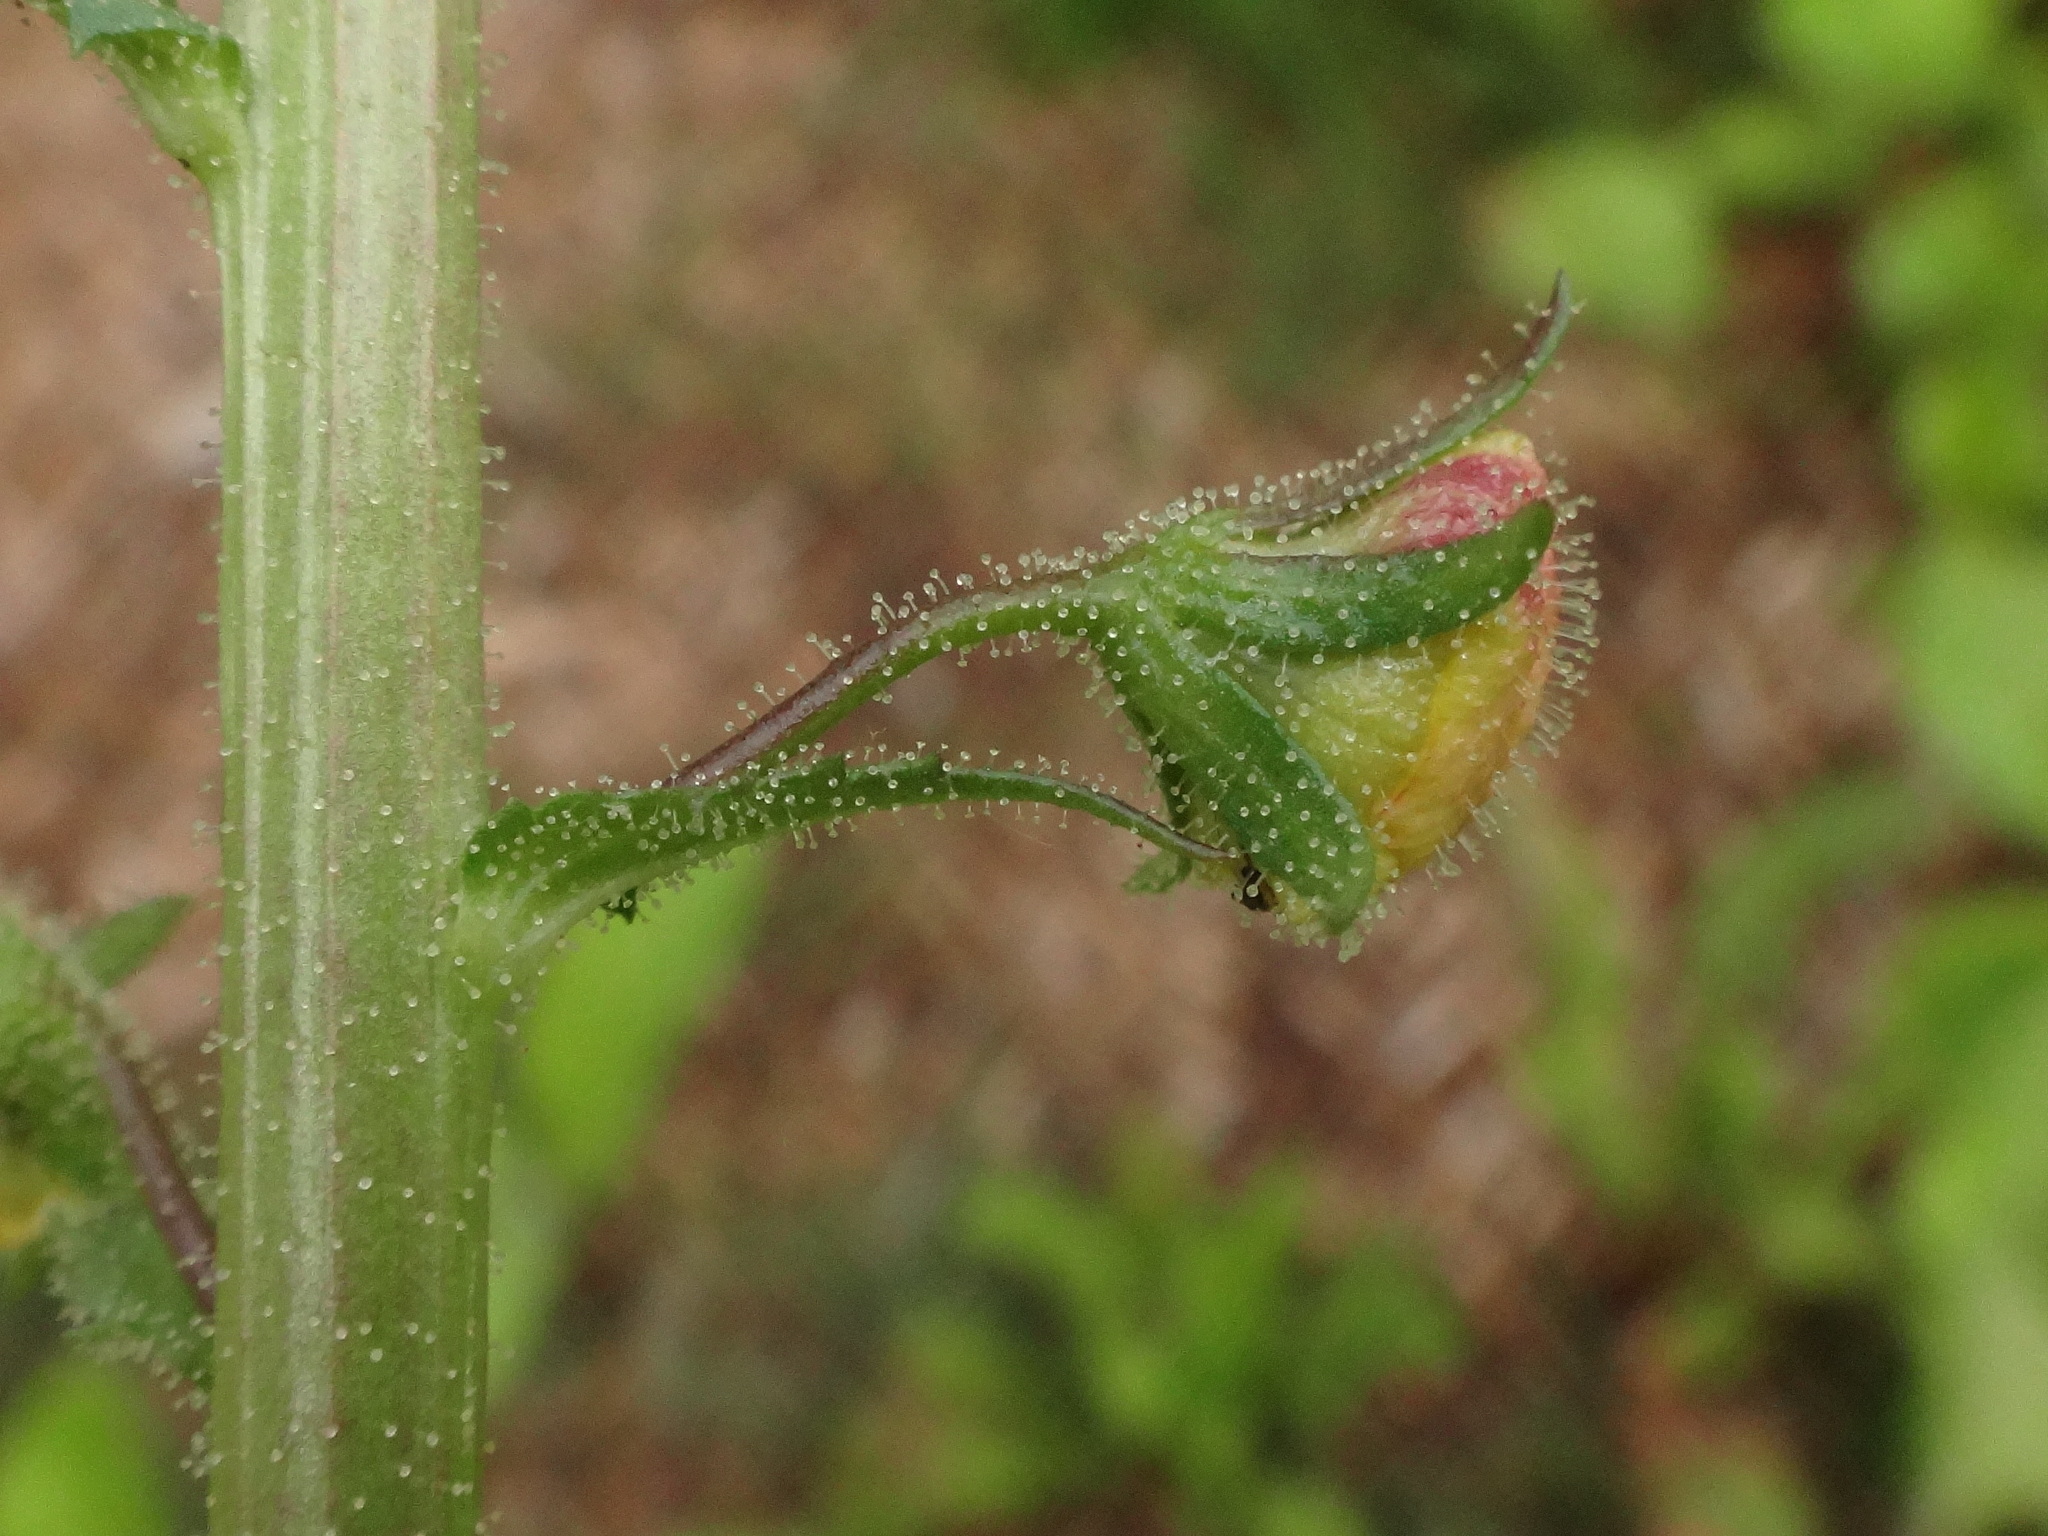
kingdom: Plantae
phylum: Tracheophyta
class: Magnoliopsida
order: Lamiales
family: Scrophulariaceae
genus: Verbascum
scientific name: Verbascum blattaria
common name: Moth mullein
